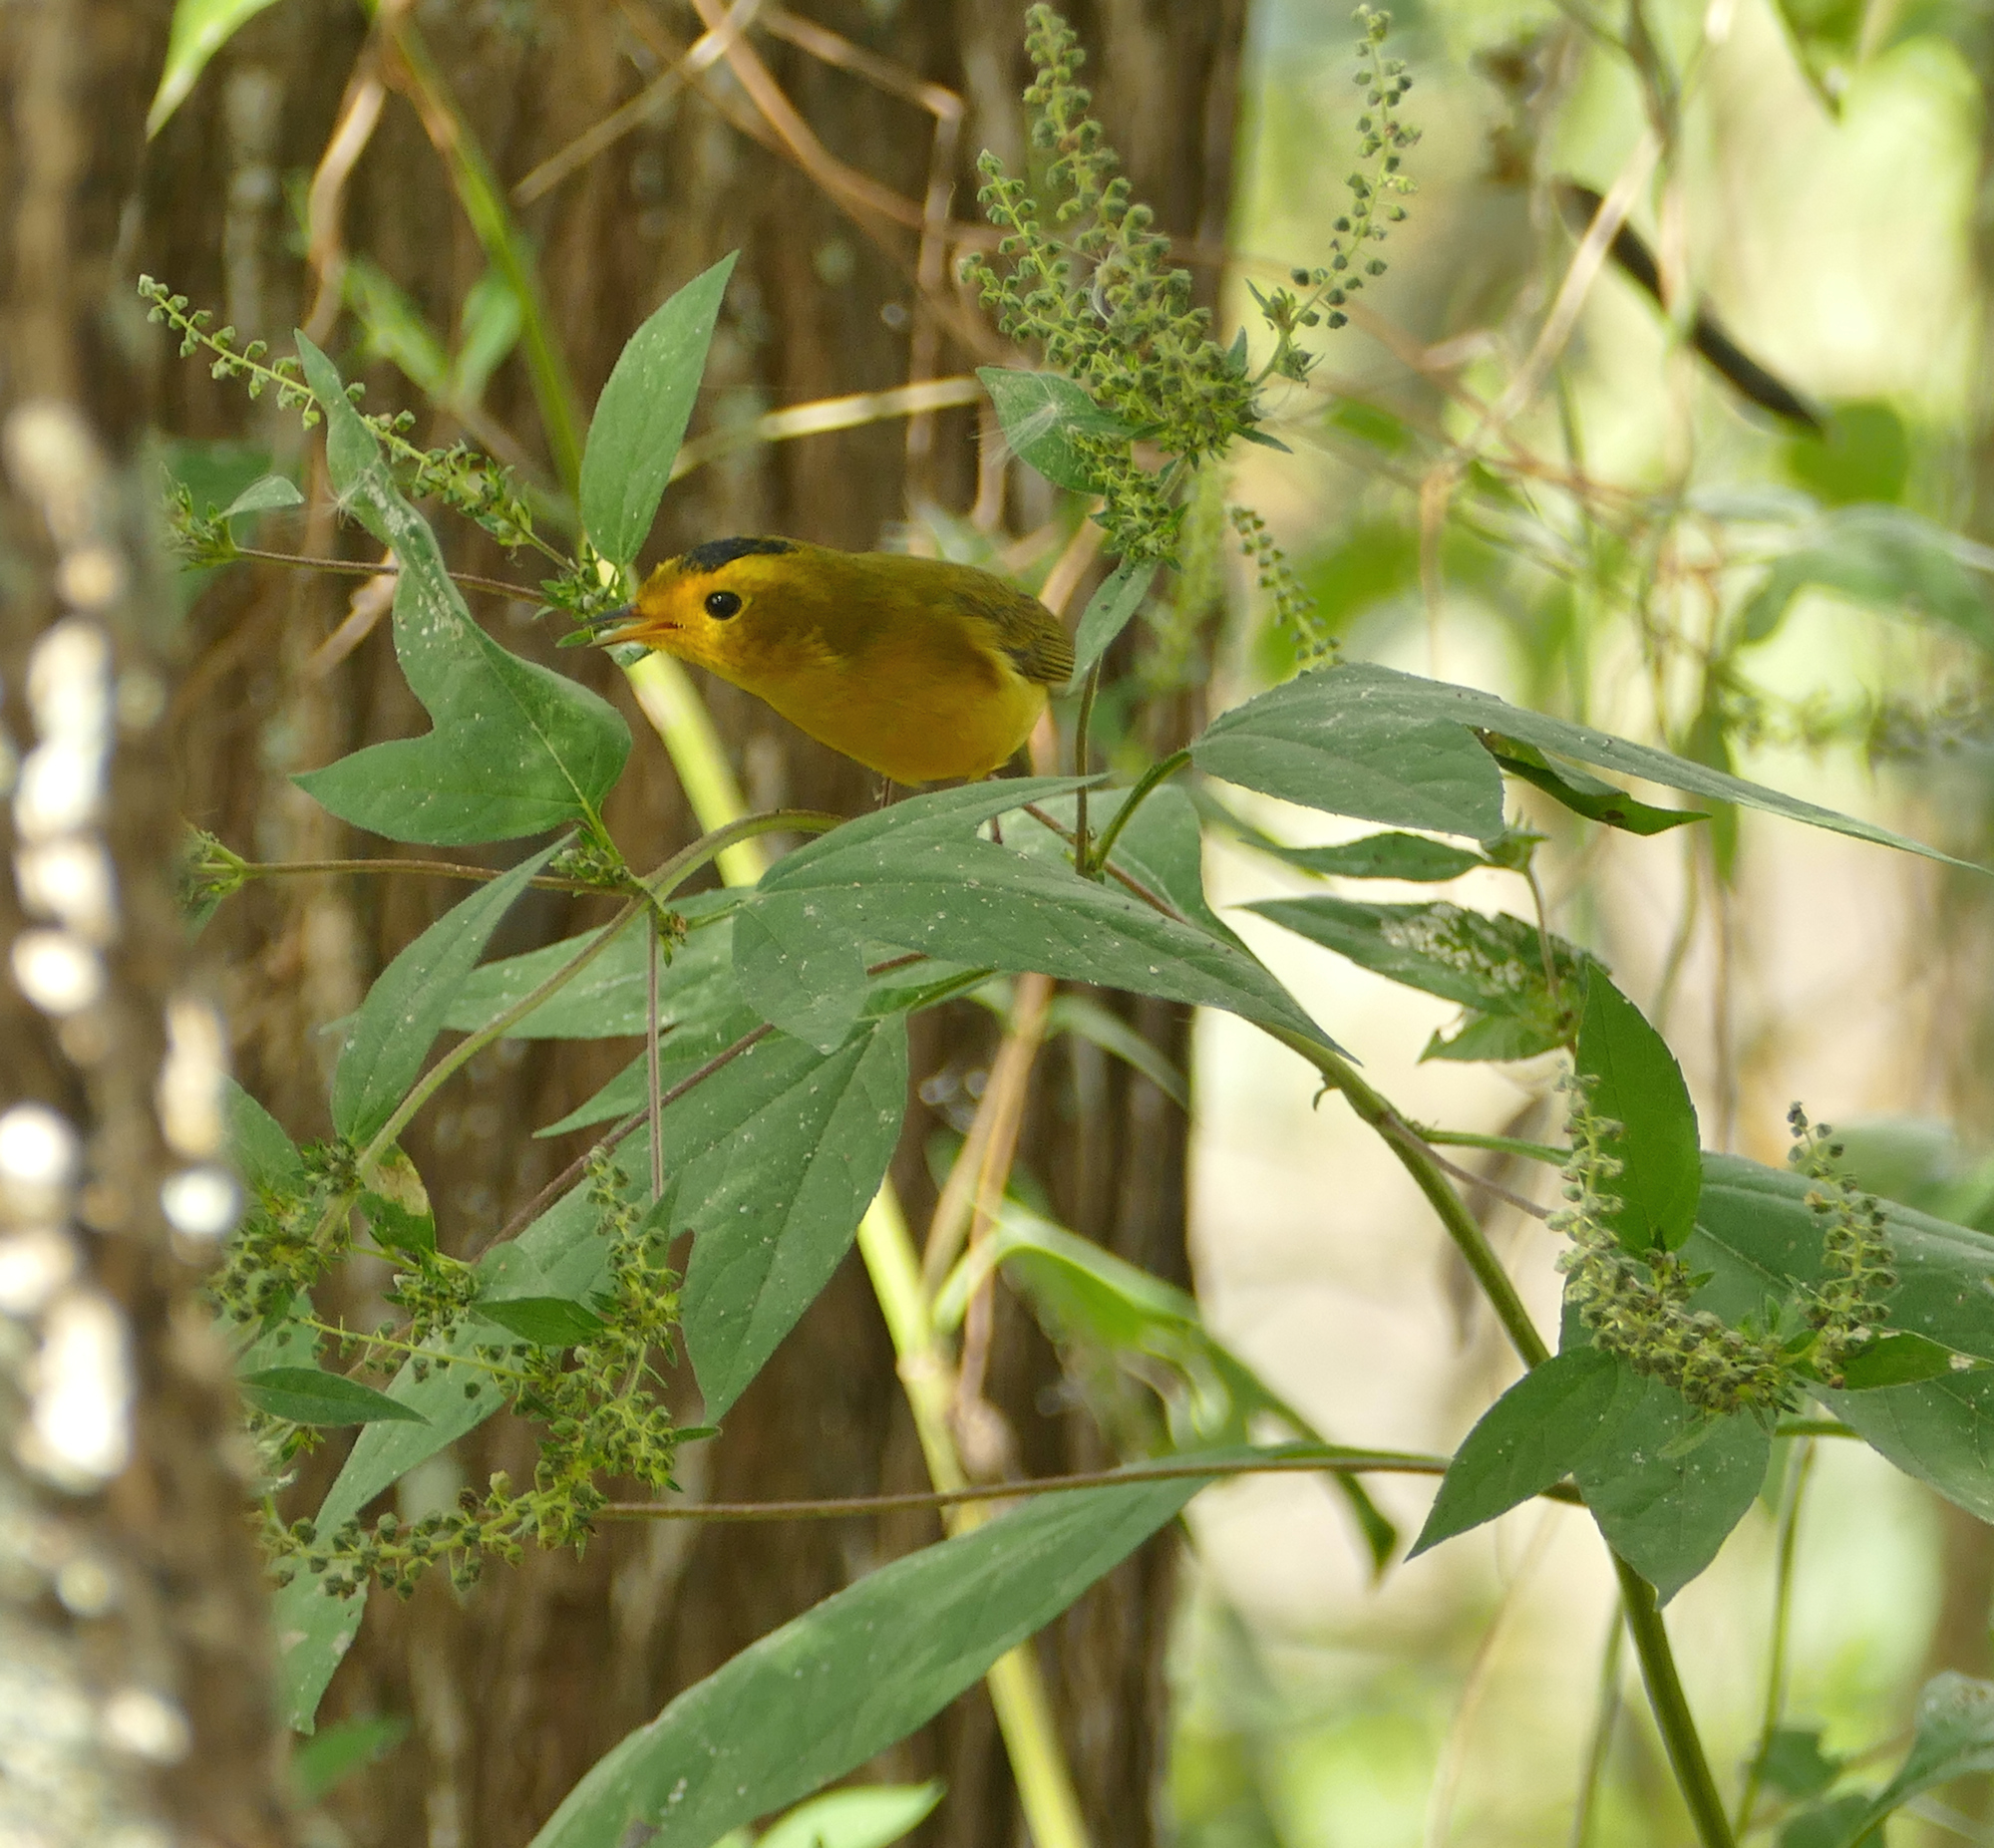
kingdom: Animalia
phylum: Chordata
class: Aves
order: Passeriformes
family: Parulidae
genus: Cardellina
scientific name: Cardellina pusilla
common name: Wilson's warbler
